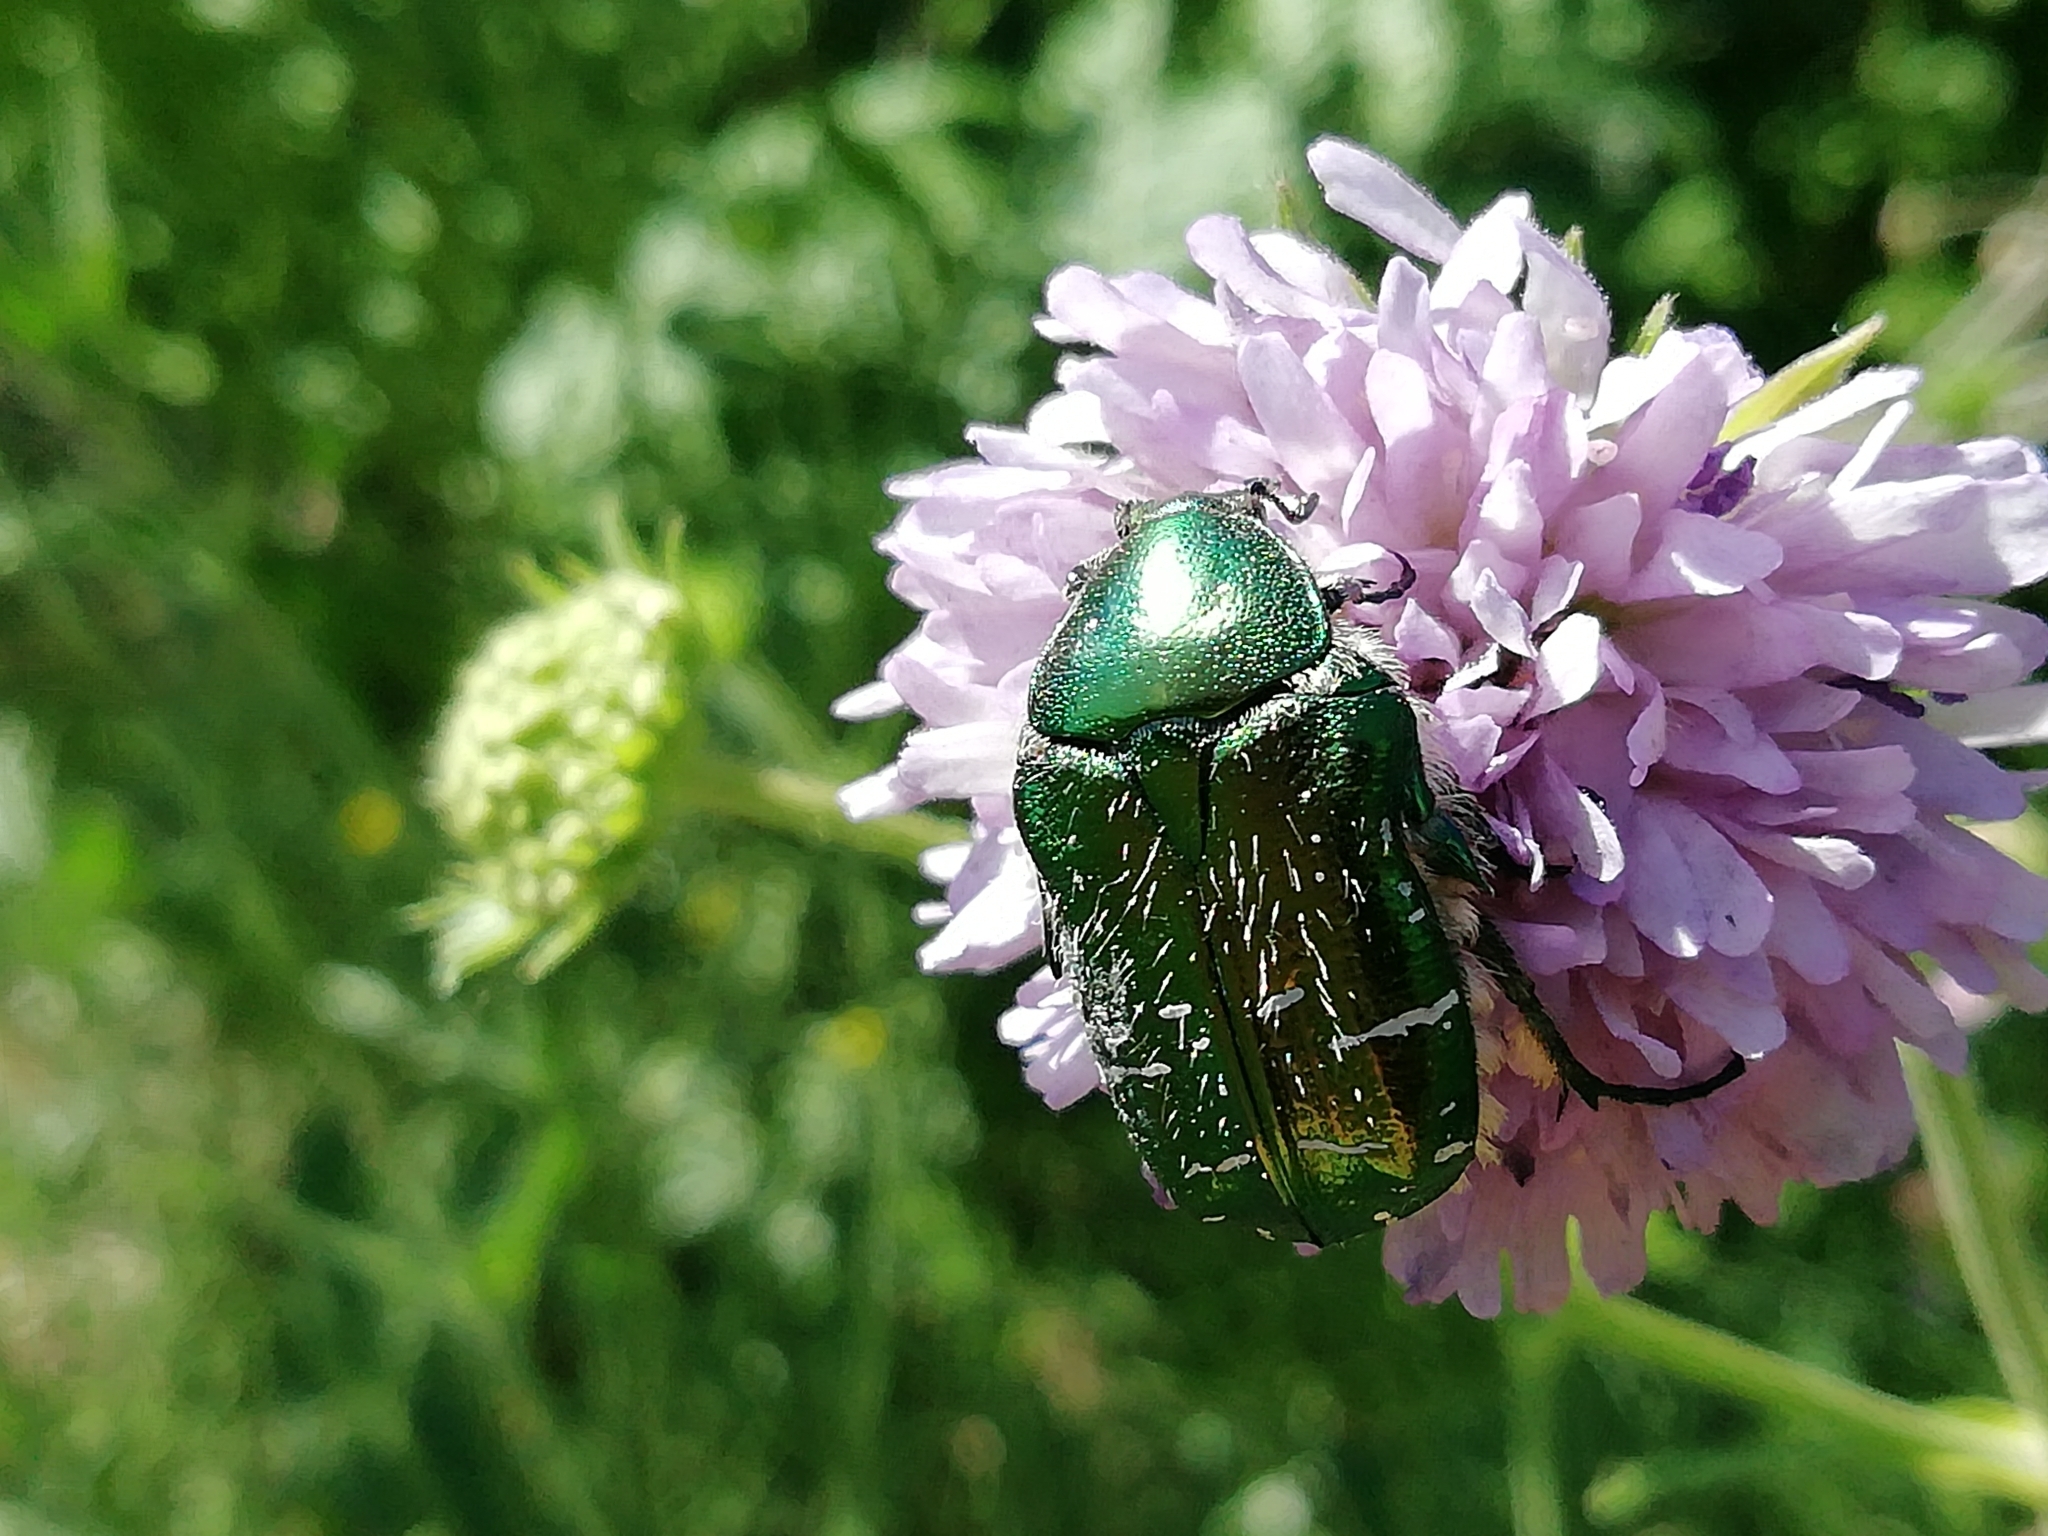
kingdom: Animalia
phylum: Arthropoda
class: Insecta
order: Coleoptera
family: Scarabaeidae
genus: Cetonia
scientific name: Cetonia aurata
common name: Rose chafer
